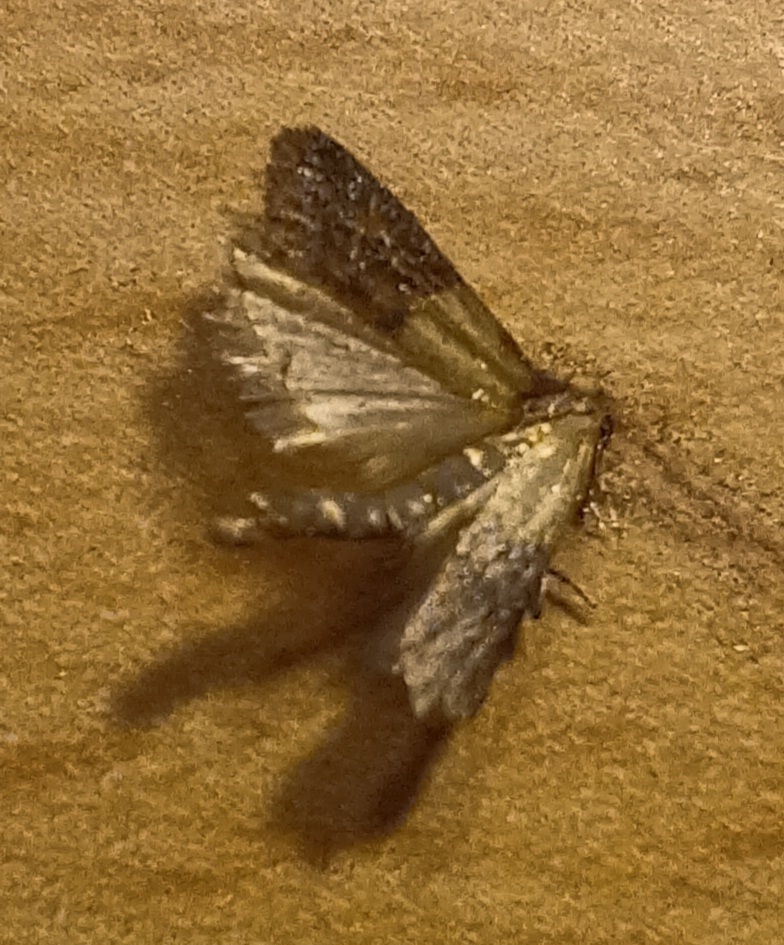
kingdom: Animalia
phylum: Arthropoda
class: Insecta
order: Lepidoptera
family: Pyralidae
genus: Plodia
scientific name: Plodia interpunctella
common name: Indian meal moth
